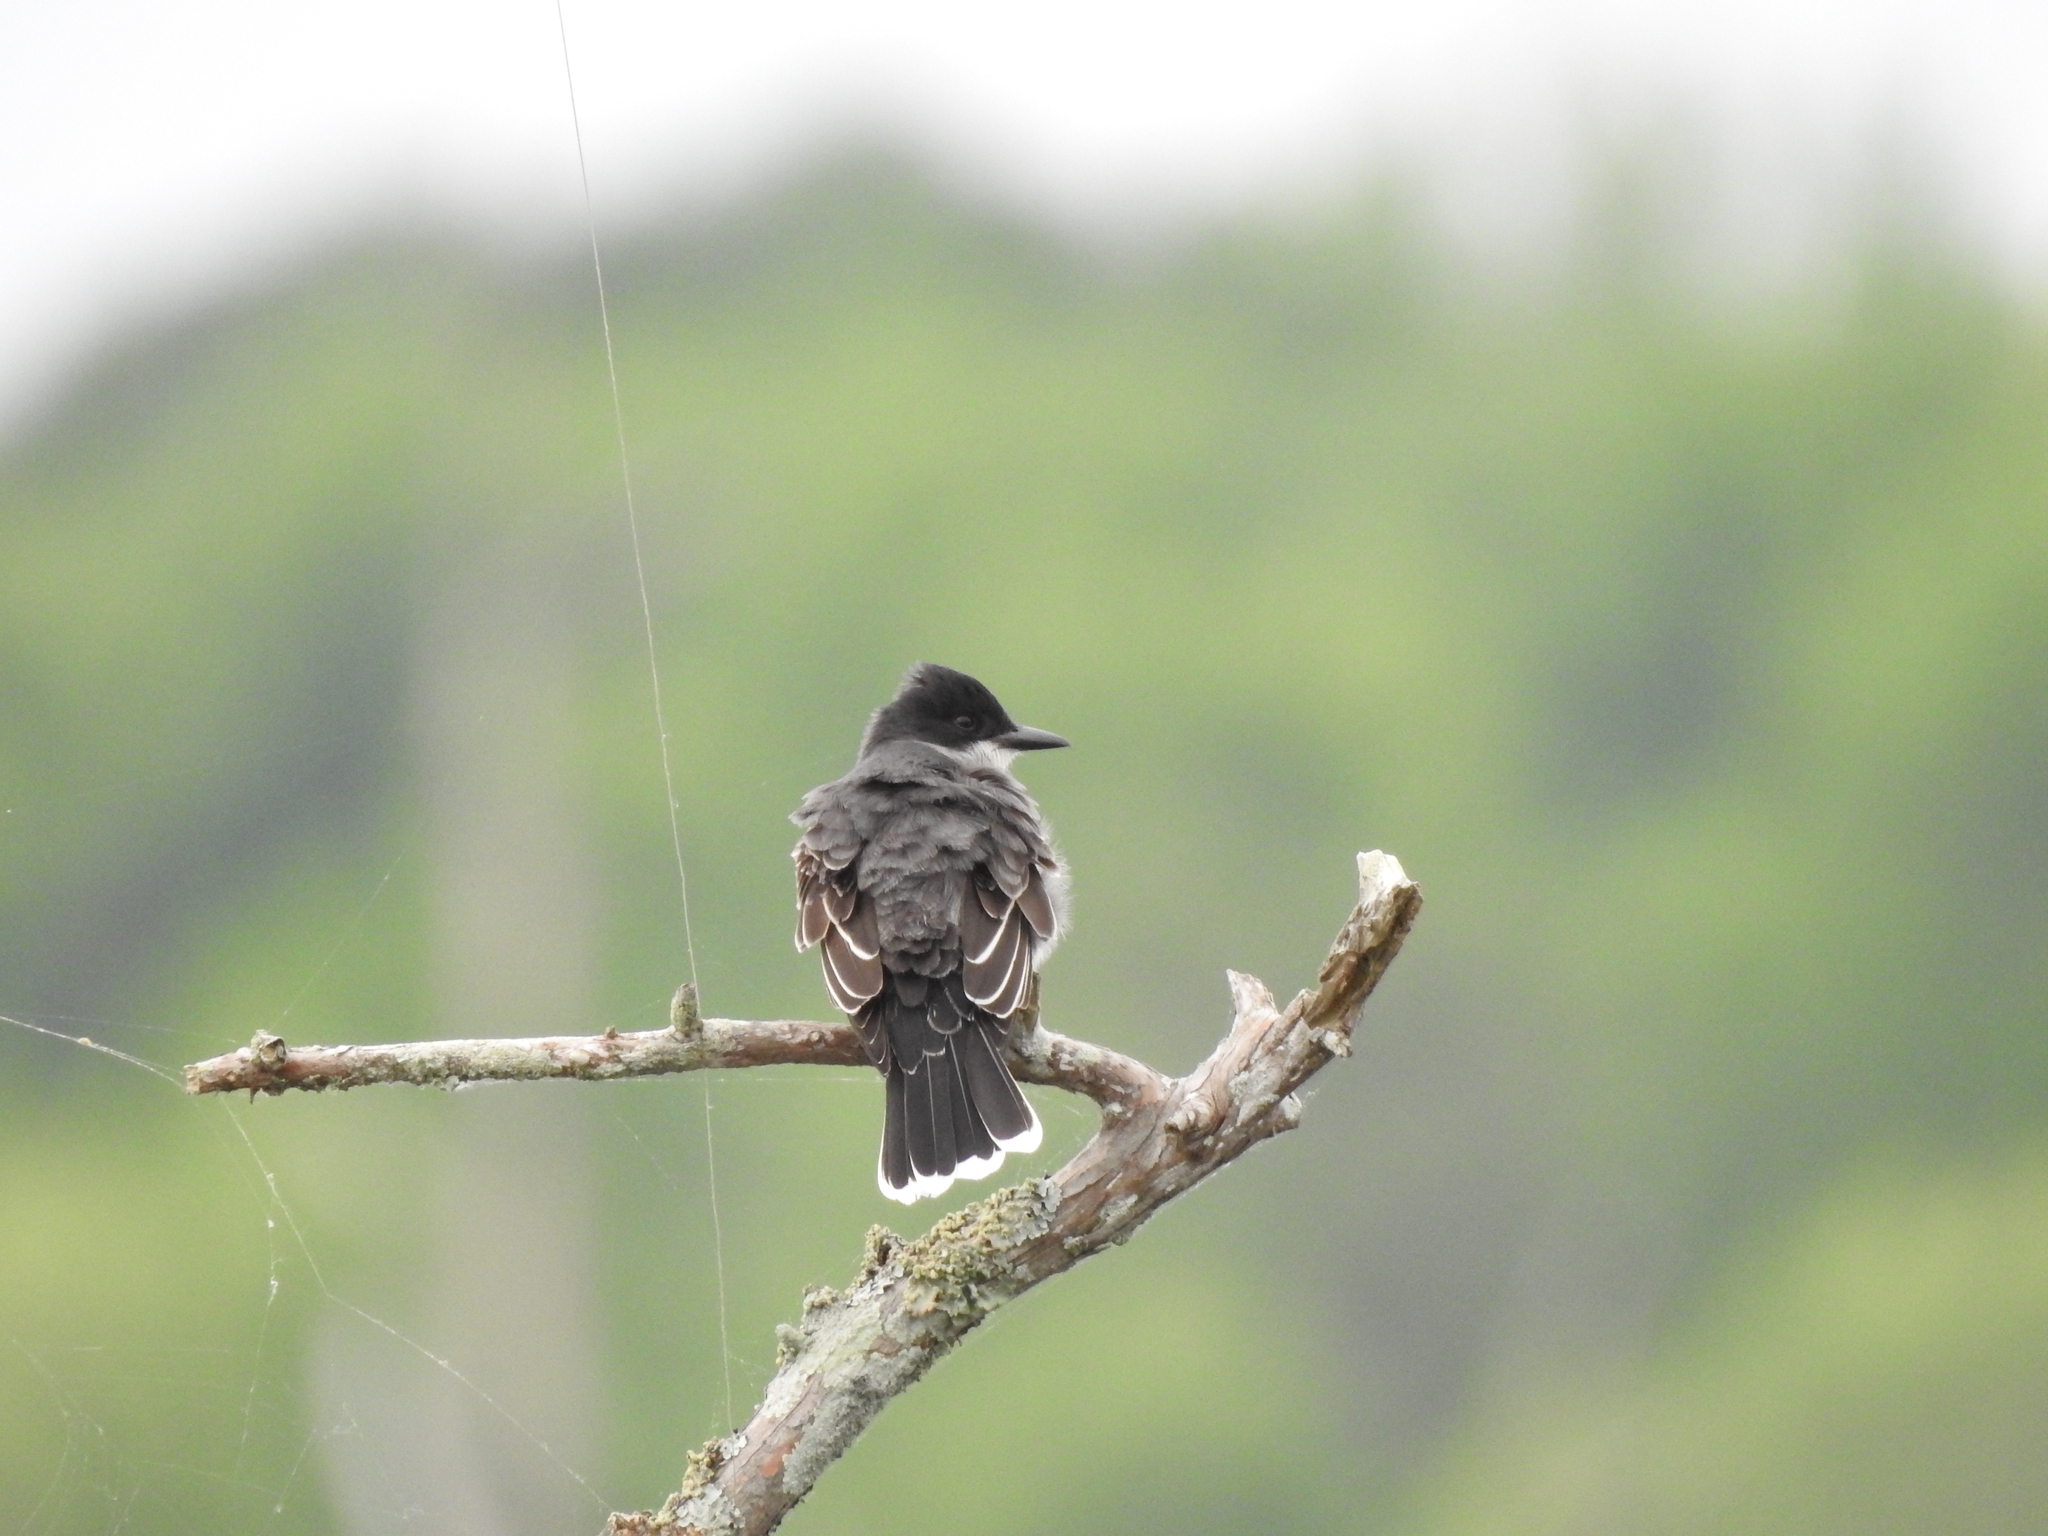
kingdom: Animalia
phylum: Chordata
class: Aves
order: Passeriformes
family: Tyrannidae
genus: Tyrannus
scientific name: Tyrannus tyrannus
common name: Eastern kingbird
